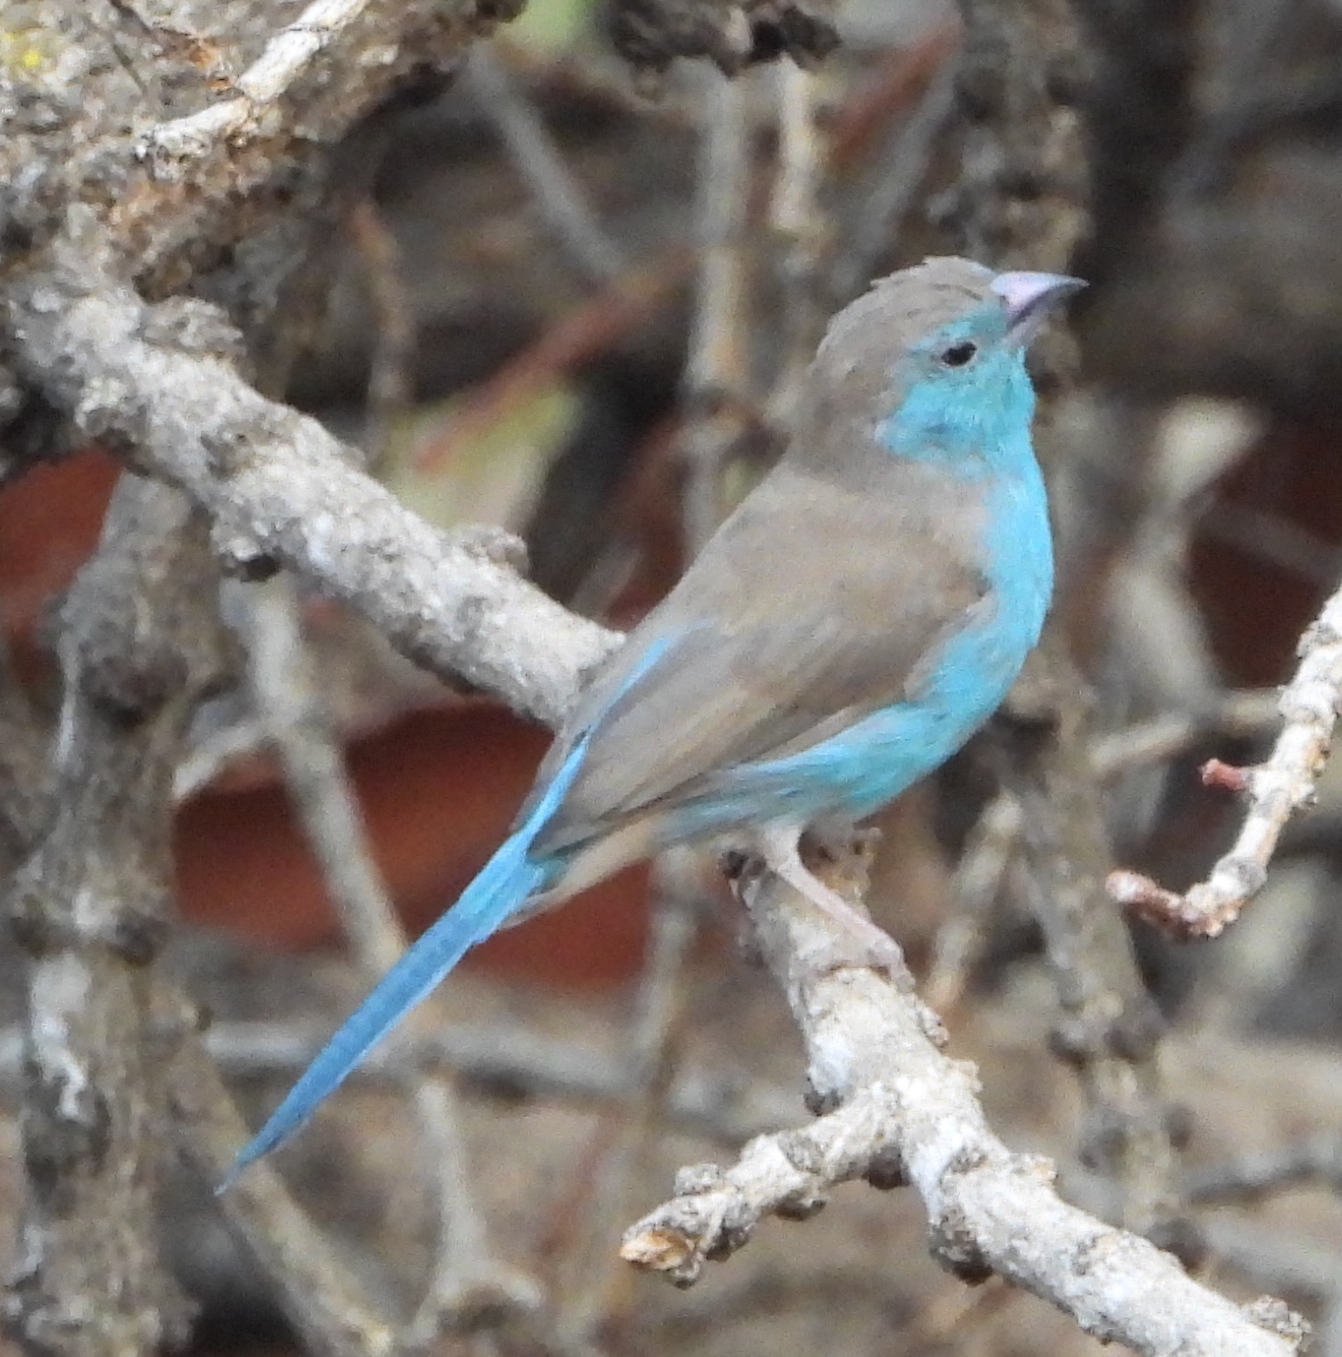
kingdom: Animalia
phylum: Chordata
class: Aves
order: Passeriformes
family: Estrildidae
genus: Uraeginthus
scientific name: Uraeginthus angolensis
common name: Blue waxbill
